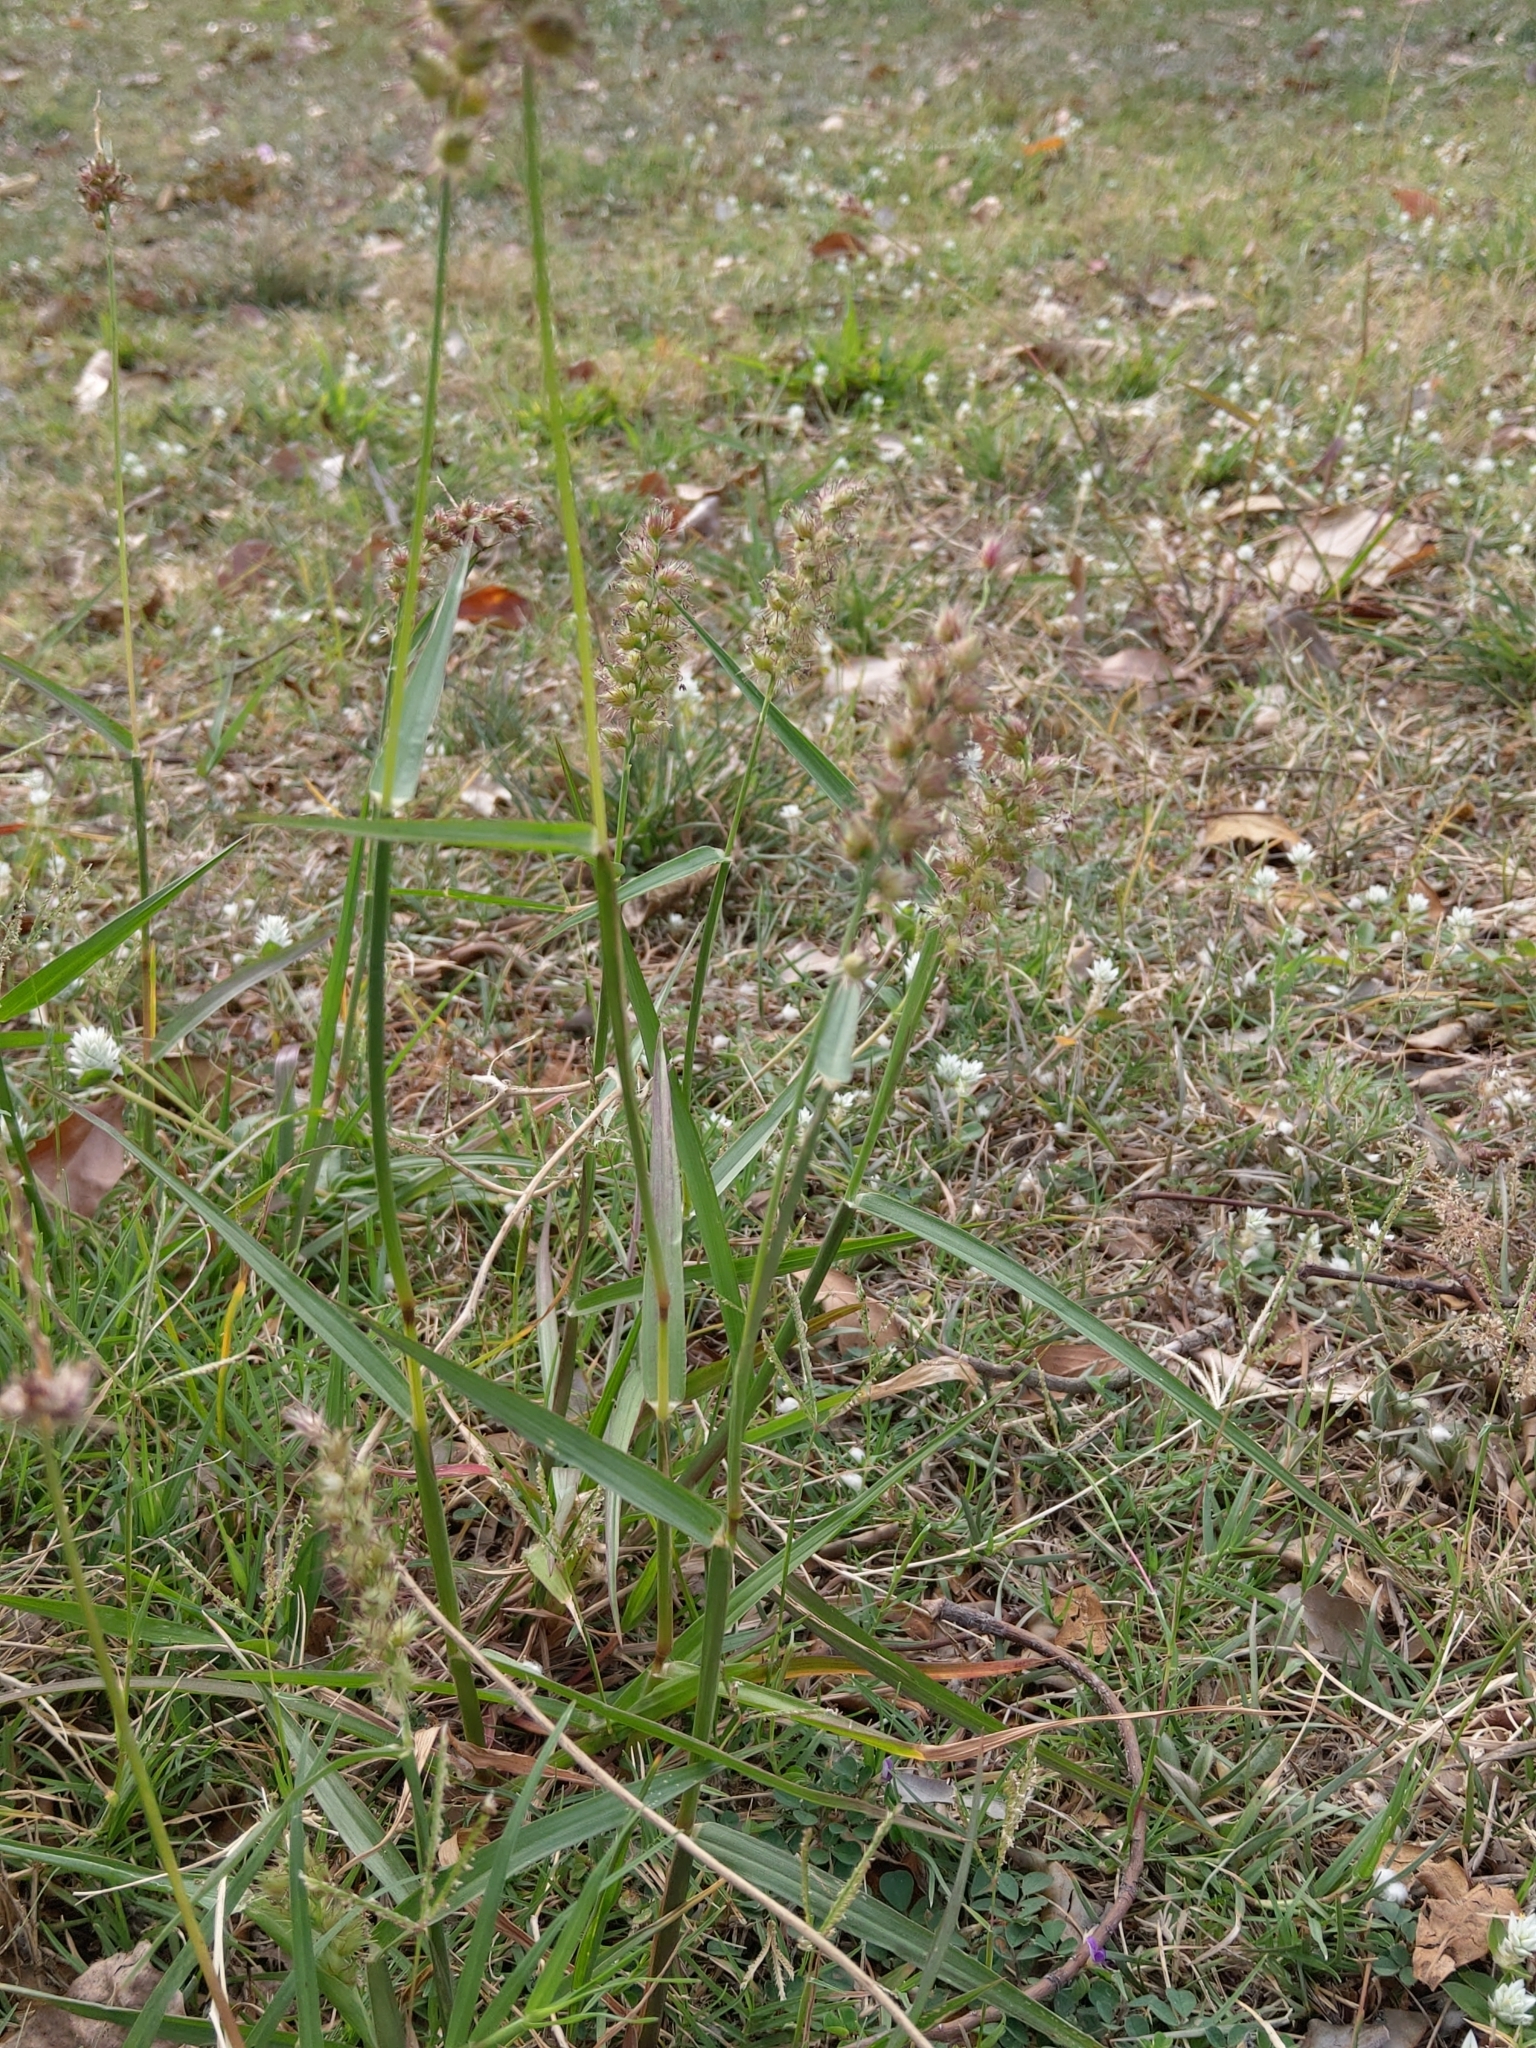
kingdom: Plantae
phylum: Tracheophyta
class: Liliopsida
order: Poales
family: Poaceae
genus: Cenchrus
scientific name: Cenchrus echinatus
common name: Southern sandbur
